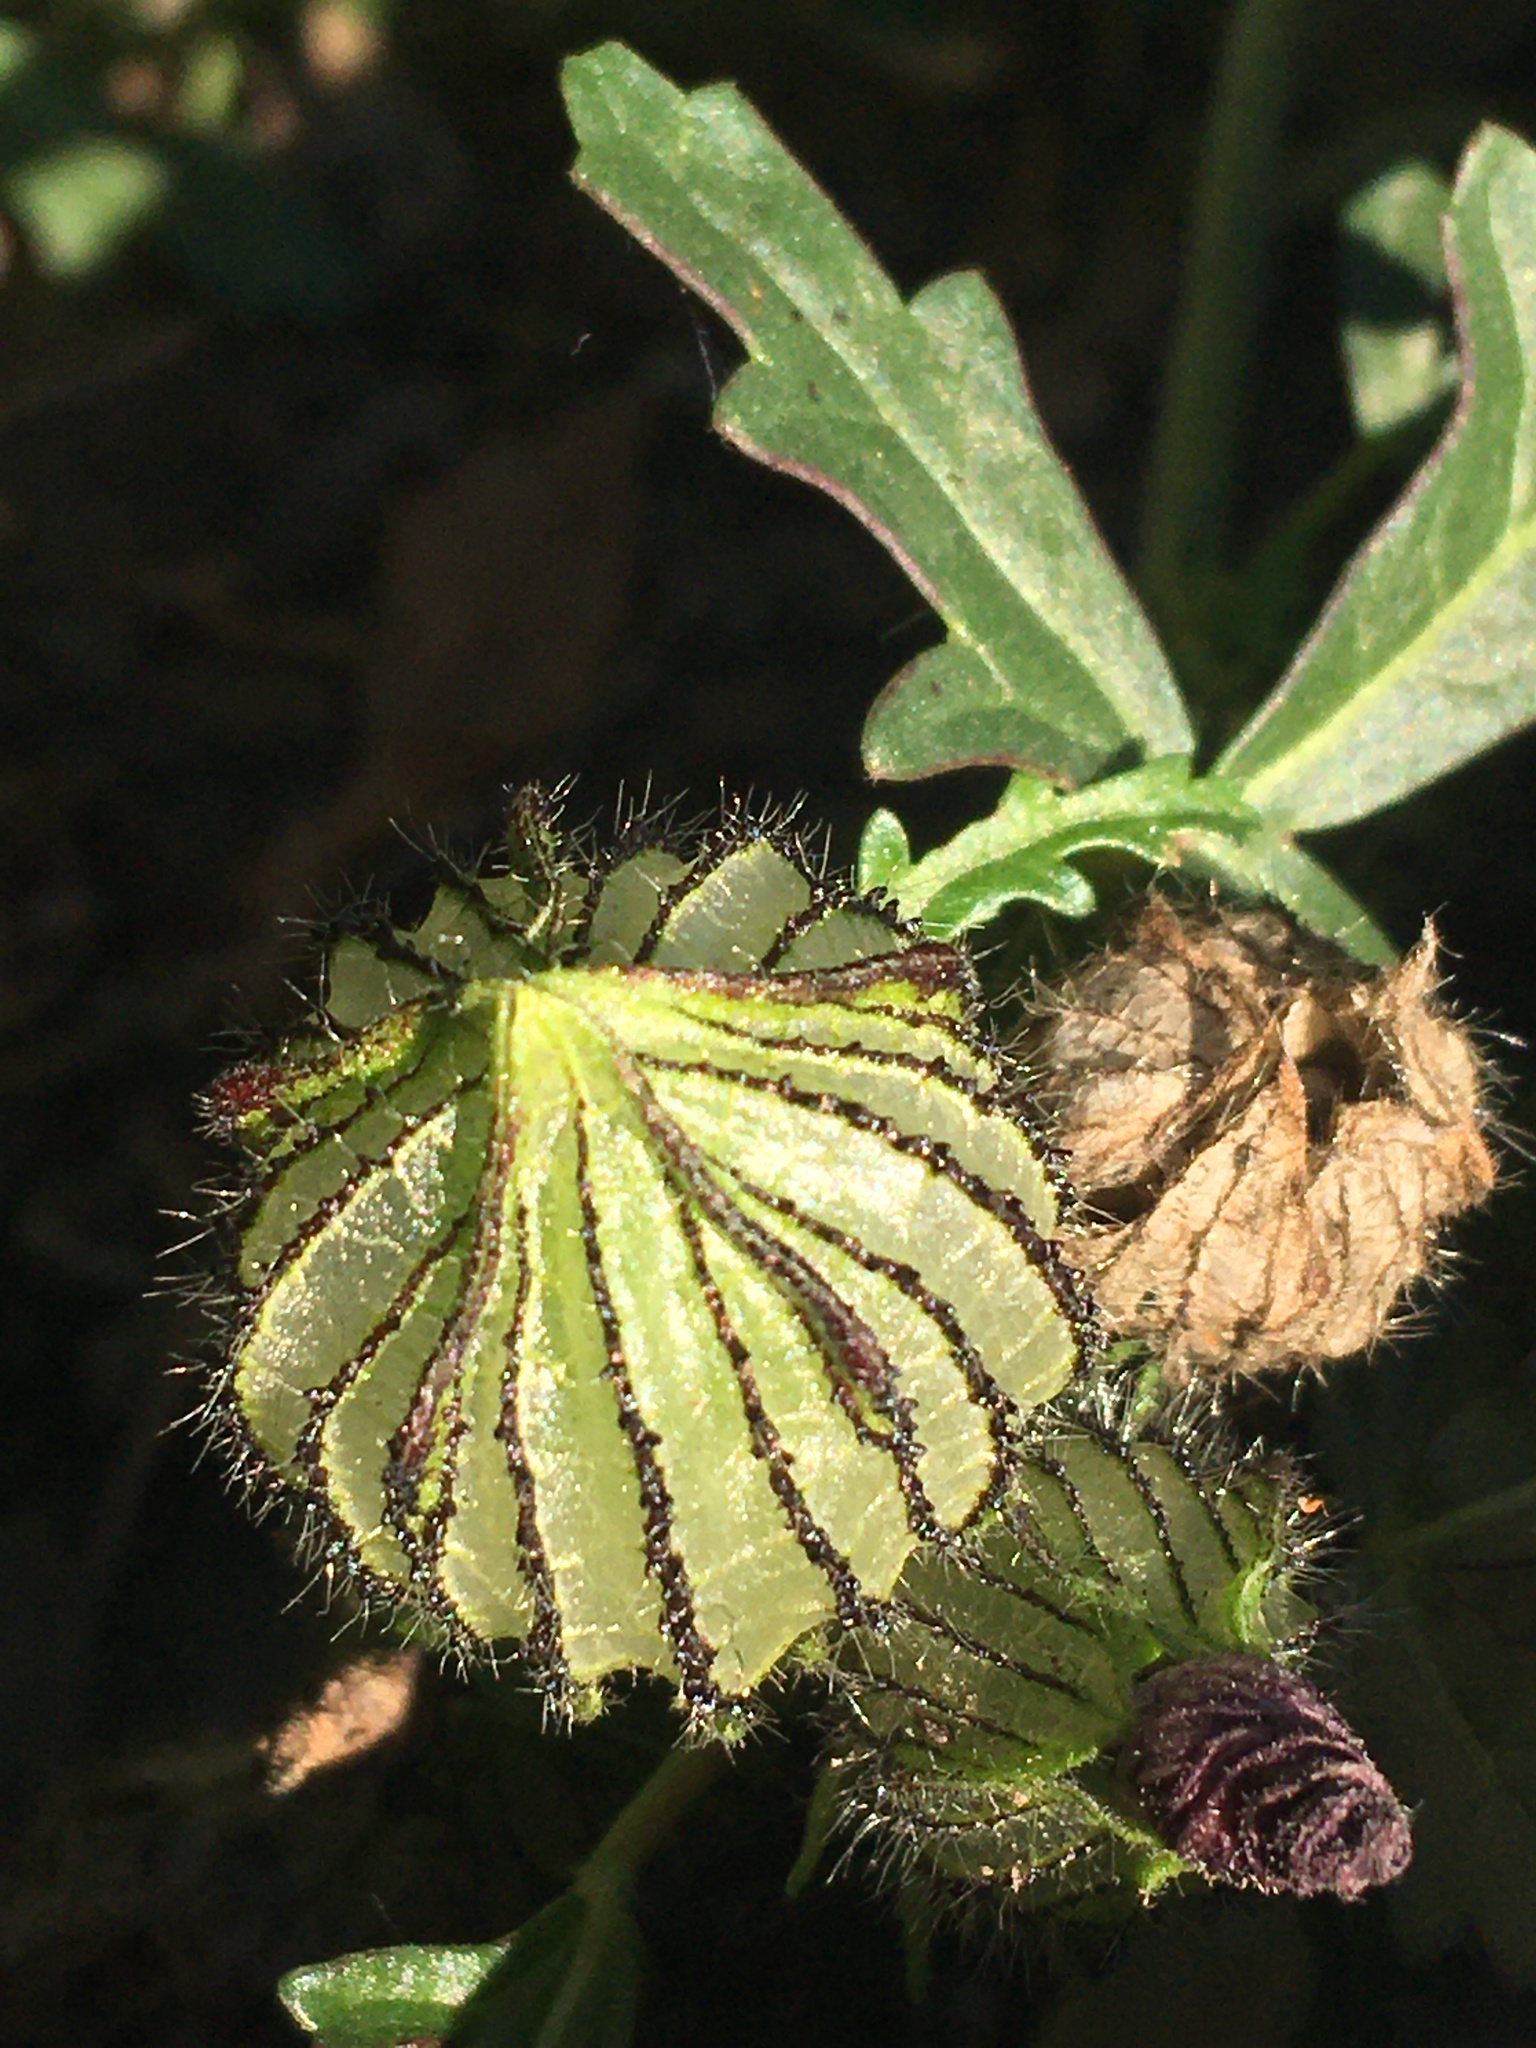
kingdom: Plantae
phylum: Tracheophyta
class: Magnoliopsida
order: Malvales
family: Malvaceae
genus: Hibiscus
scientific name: Hibiscus trionum
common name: Bladder ketmia
